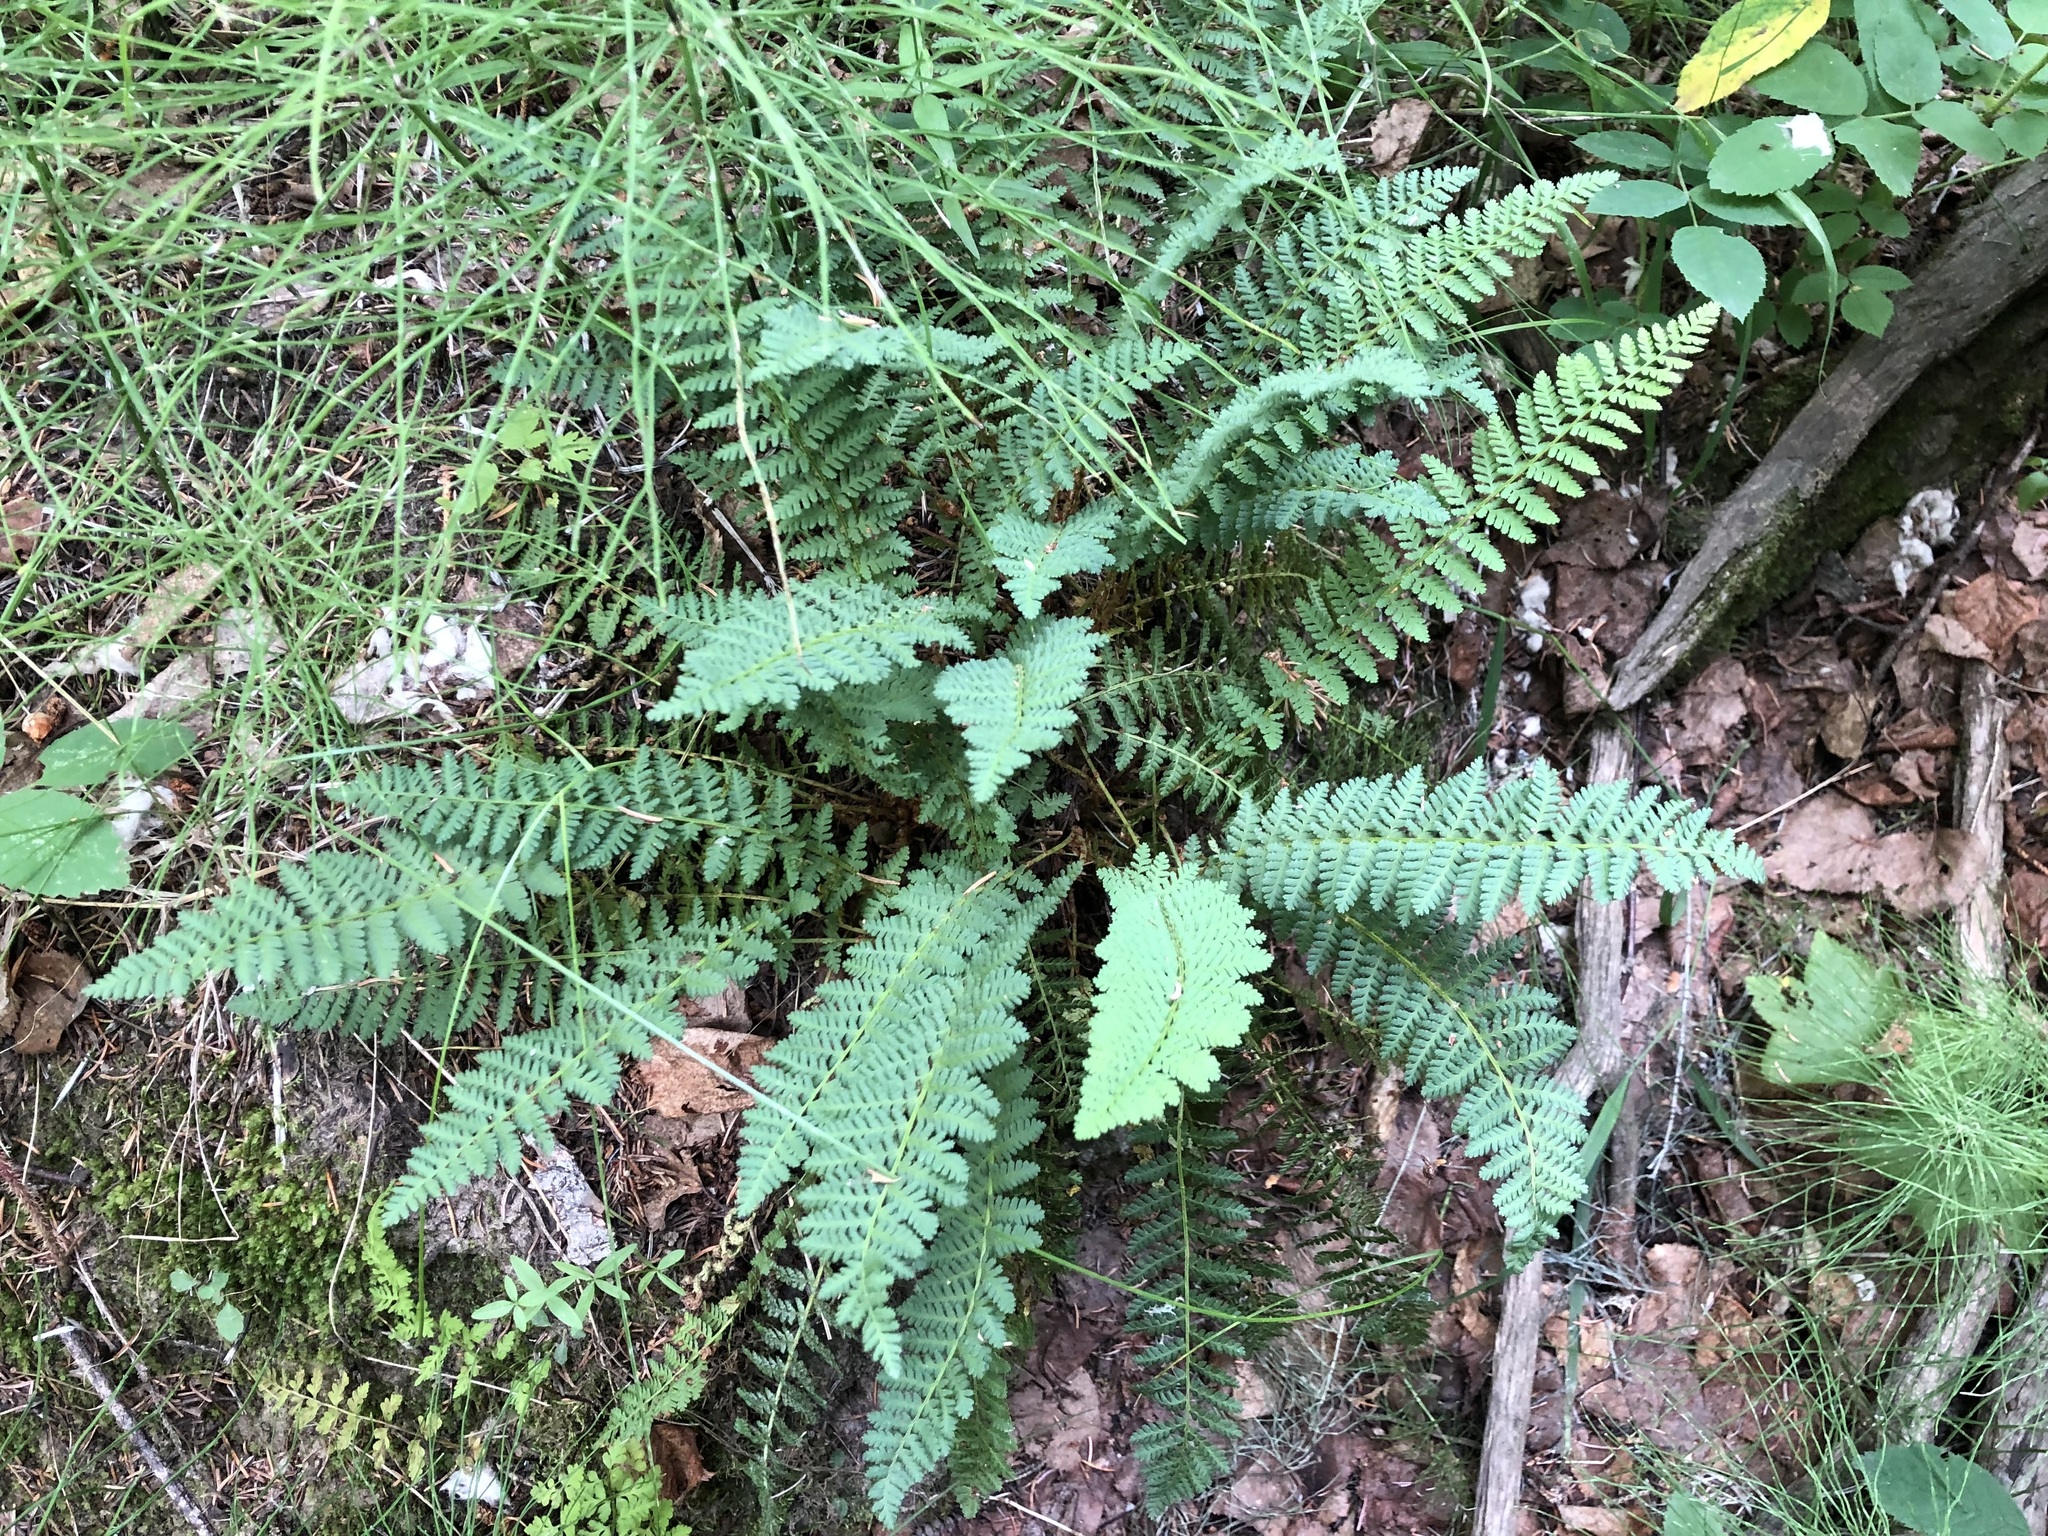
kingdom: Plantae
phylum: Tracheophyta
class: Polypodiopsida
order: Polypodiales
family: Dryopteridaceae
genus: Dryopteris
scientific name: Dryopteris fragrans
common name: Fragrant wood fern
